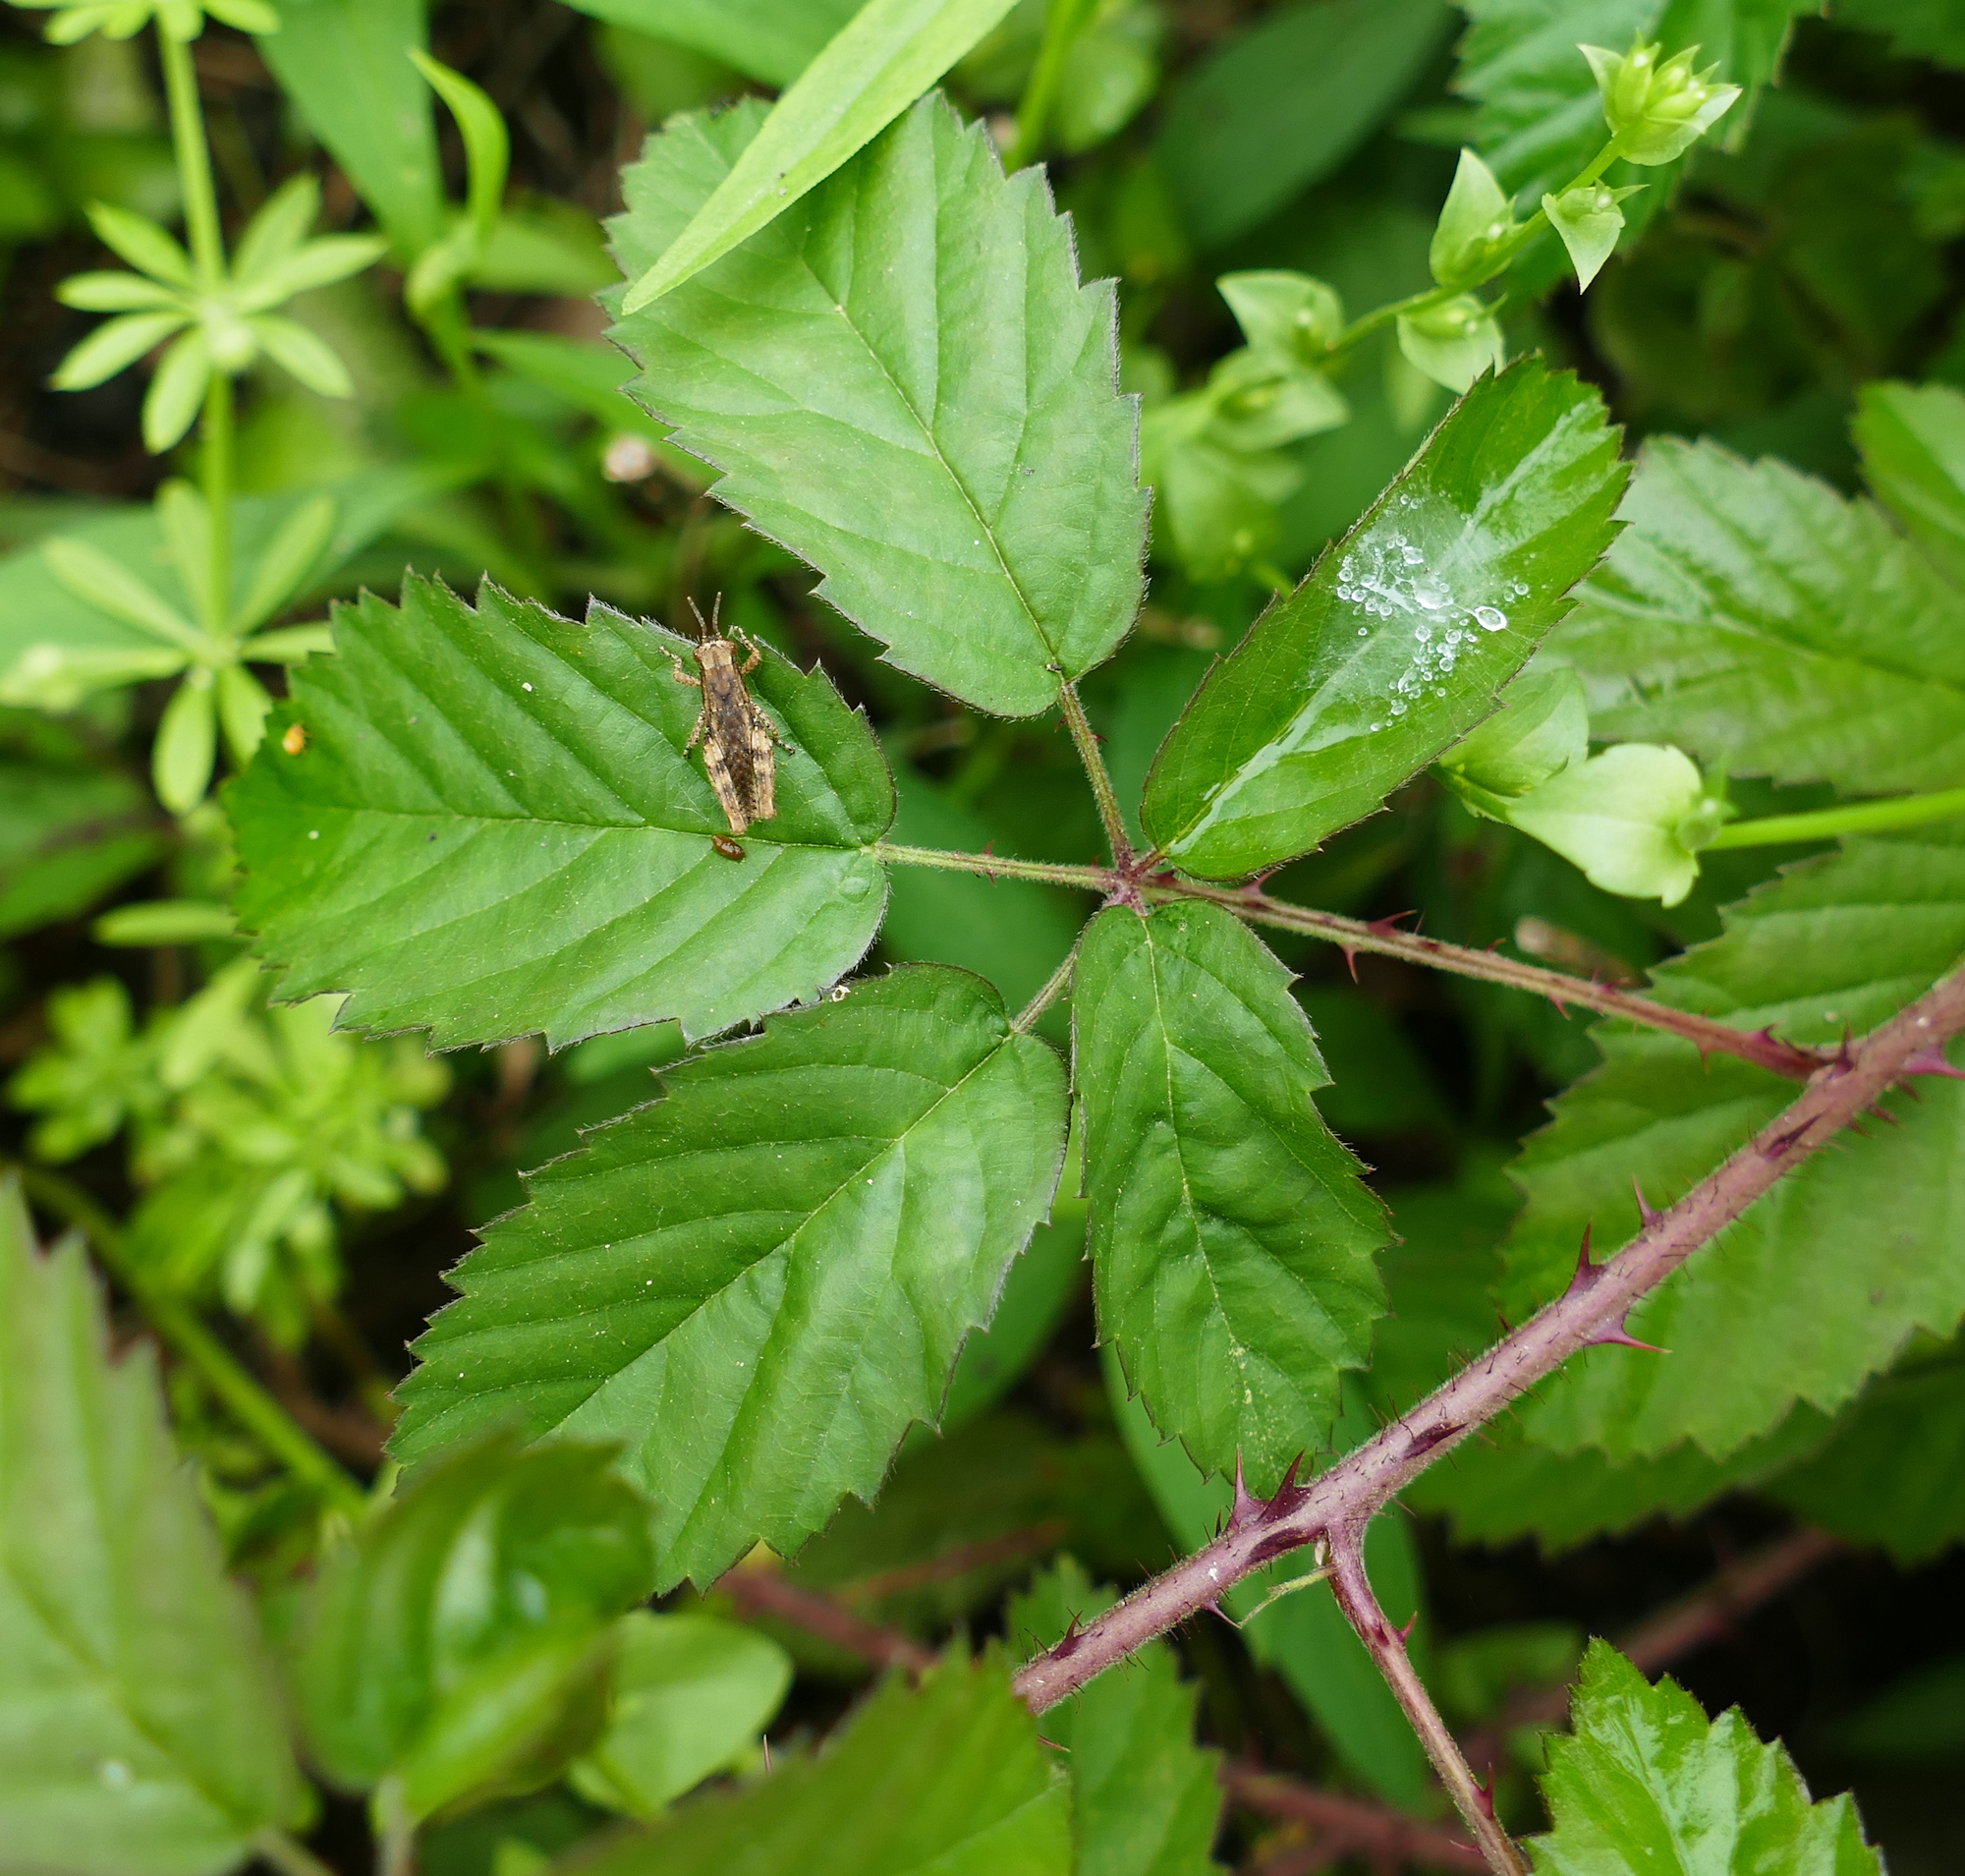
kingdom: Plantae
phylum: Tracheophyta
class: Magnoliopsida
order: Rosales
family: Rosaceae
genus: Rubus
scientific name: Rubus trivialis
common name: Southern dewberry
